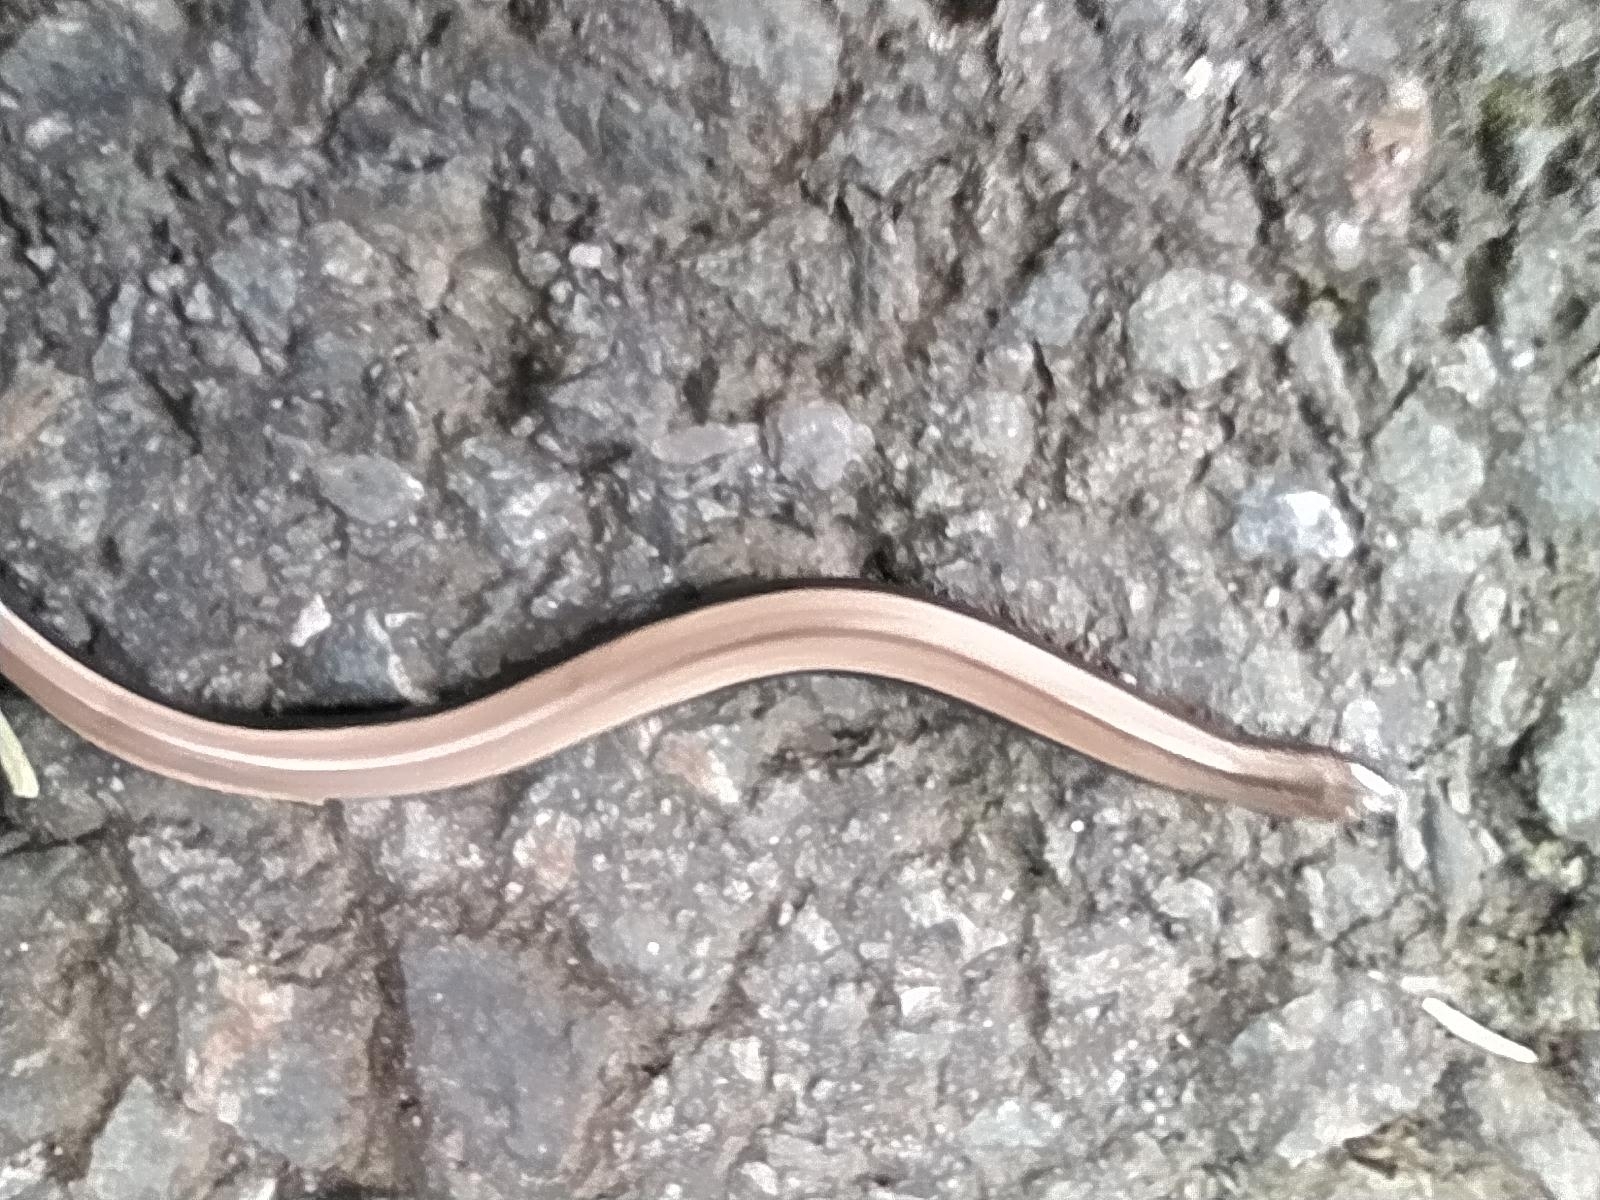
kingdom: Animalia
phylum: Chordata
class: Squamata
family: Anguidae
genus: Anguis
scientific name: Anguis fragilis
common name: Slow worm
